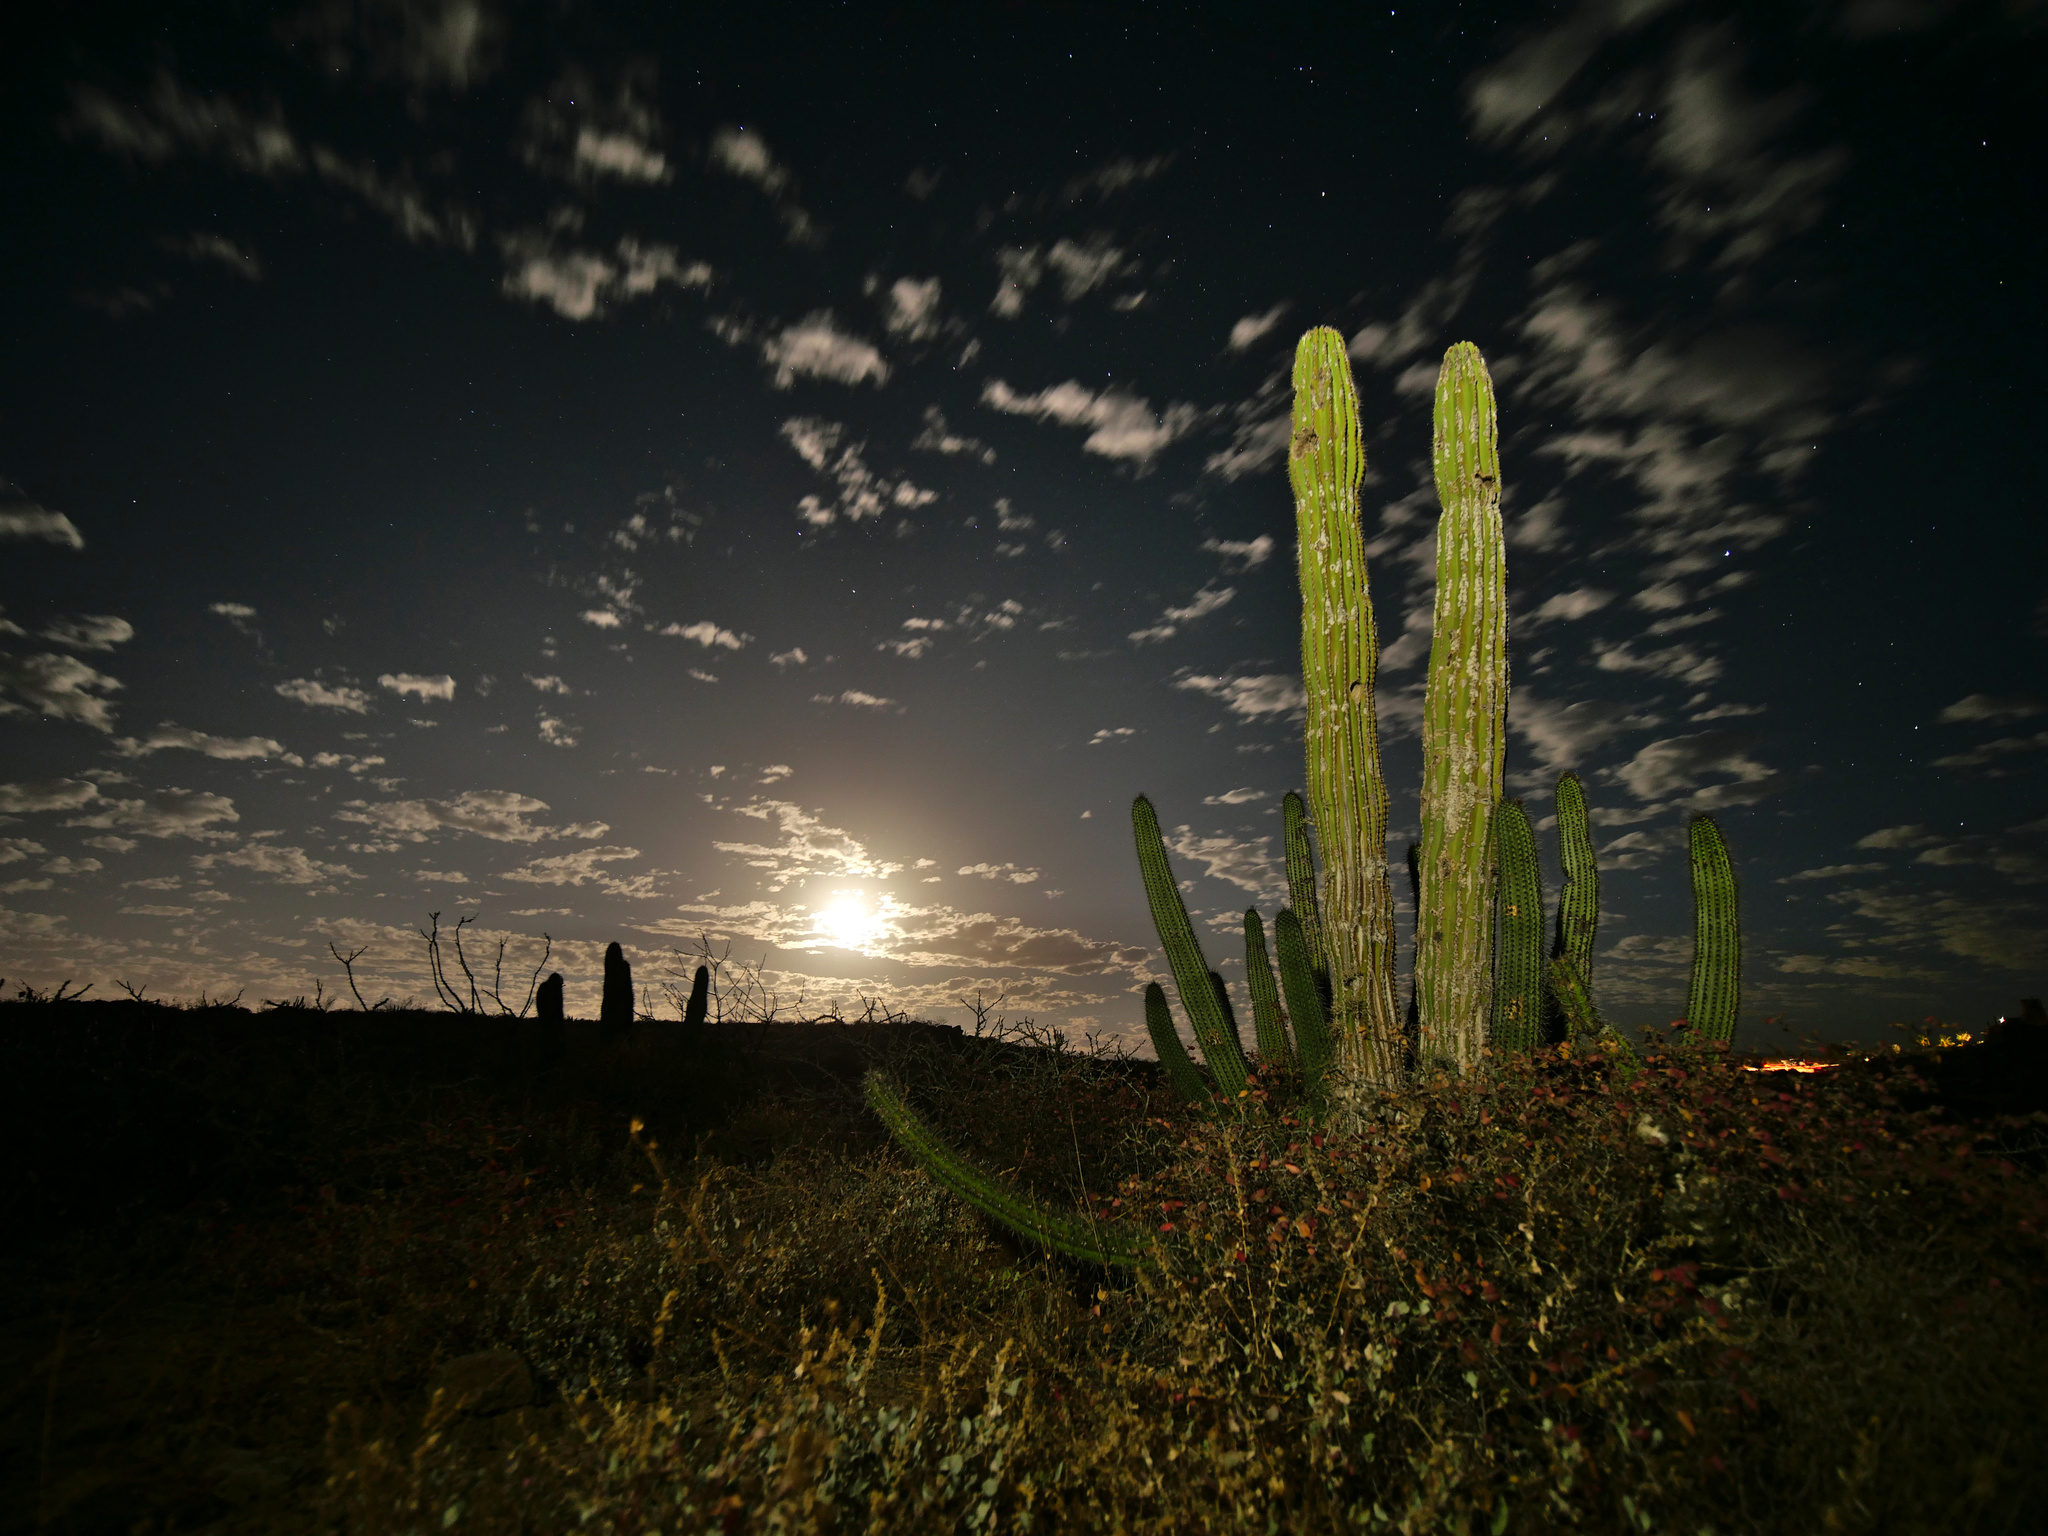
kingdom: Plantae
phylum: Tracheophyta
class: Magnoliopsida
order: Caryophyllales
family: Cactaceae
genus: Pachycereus
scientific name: Pachycereus pringlei
